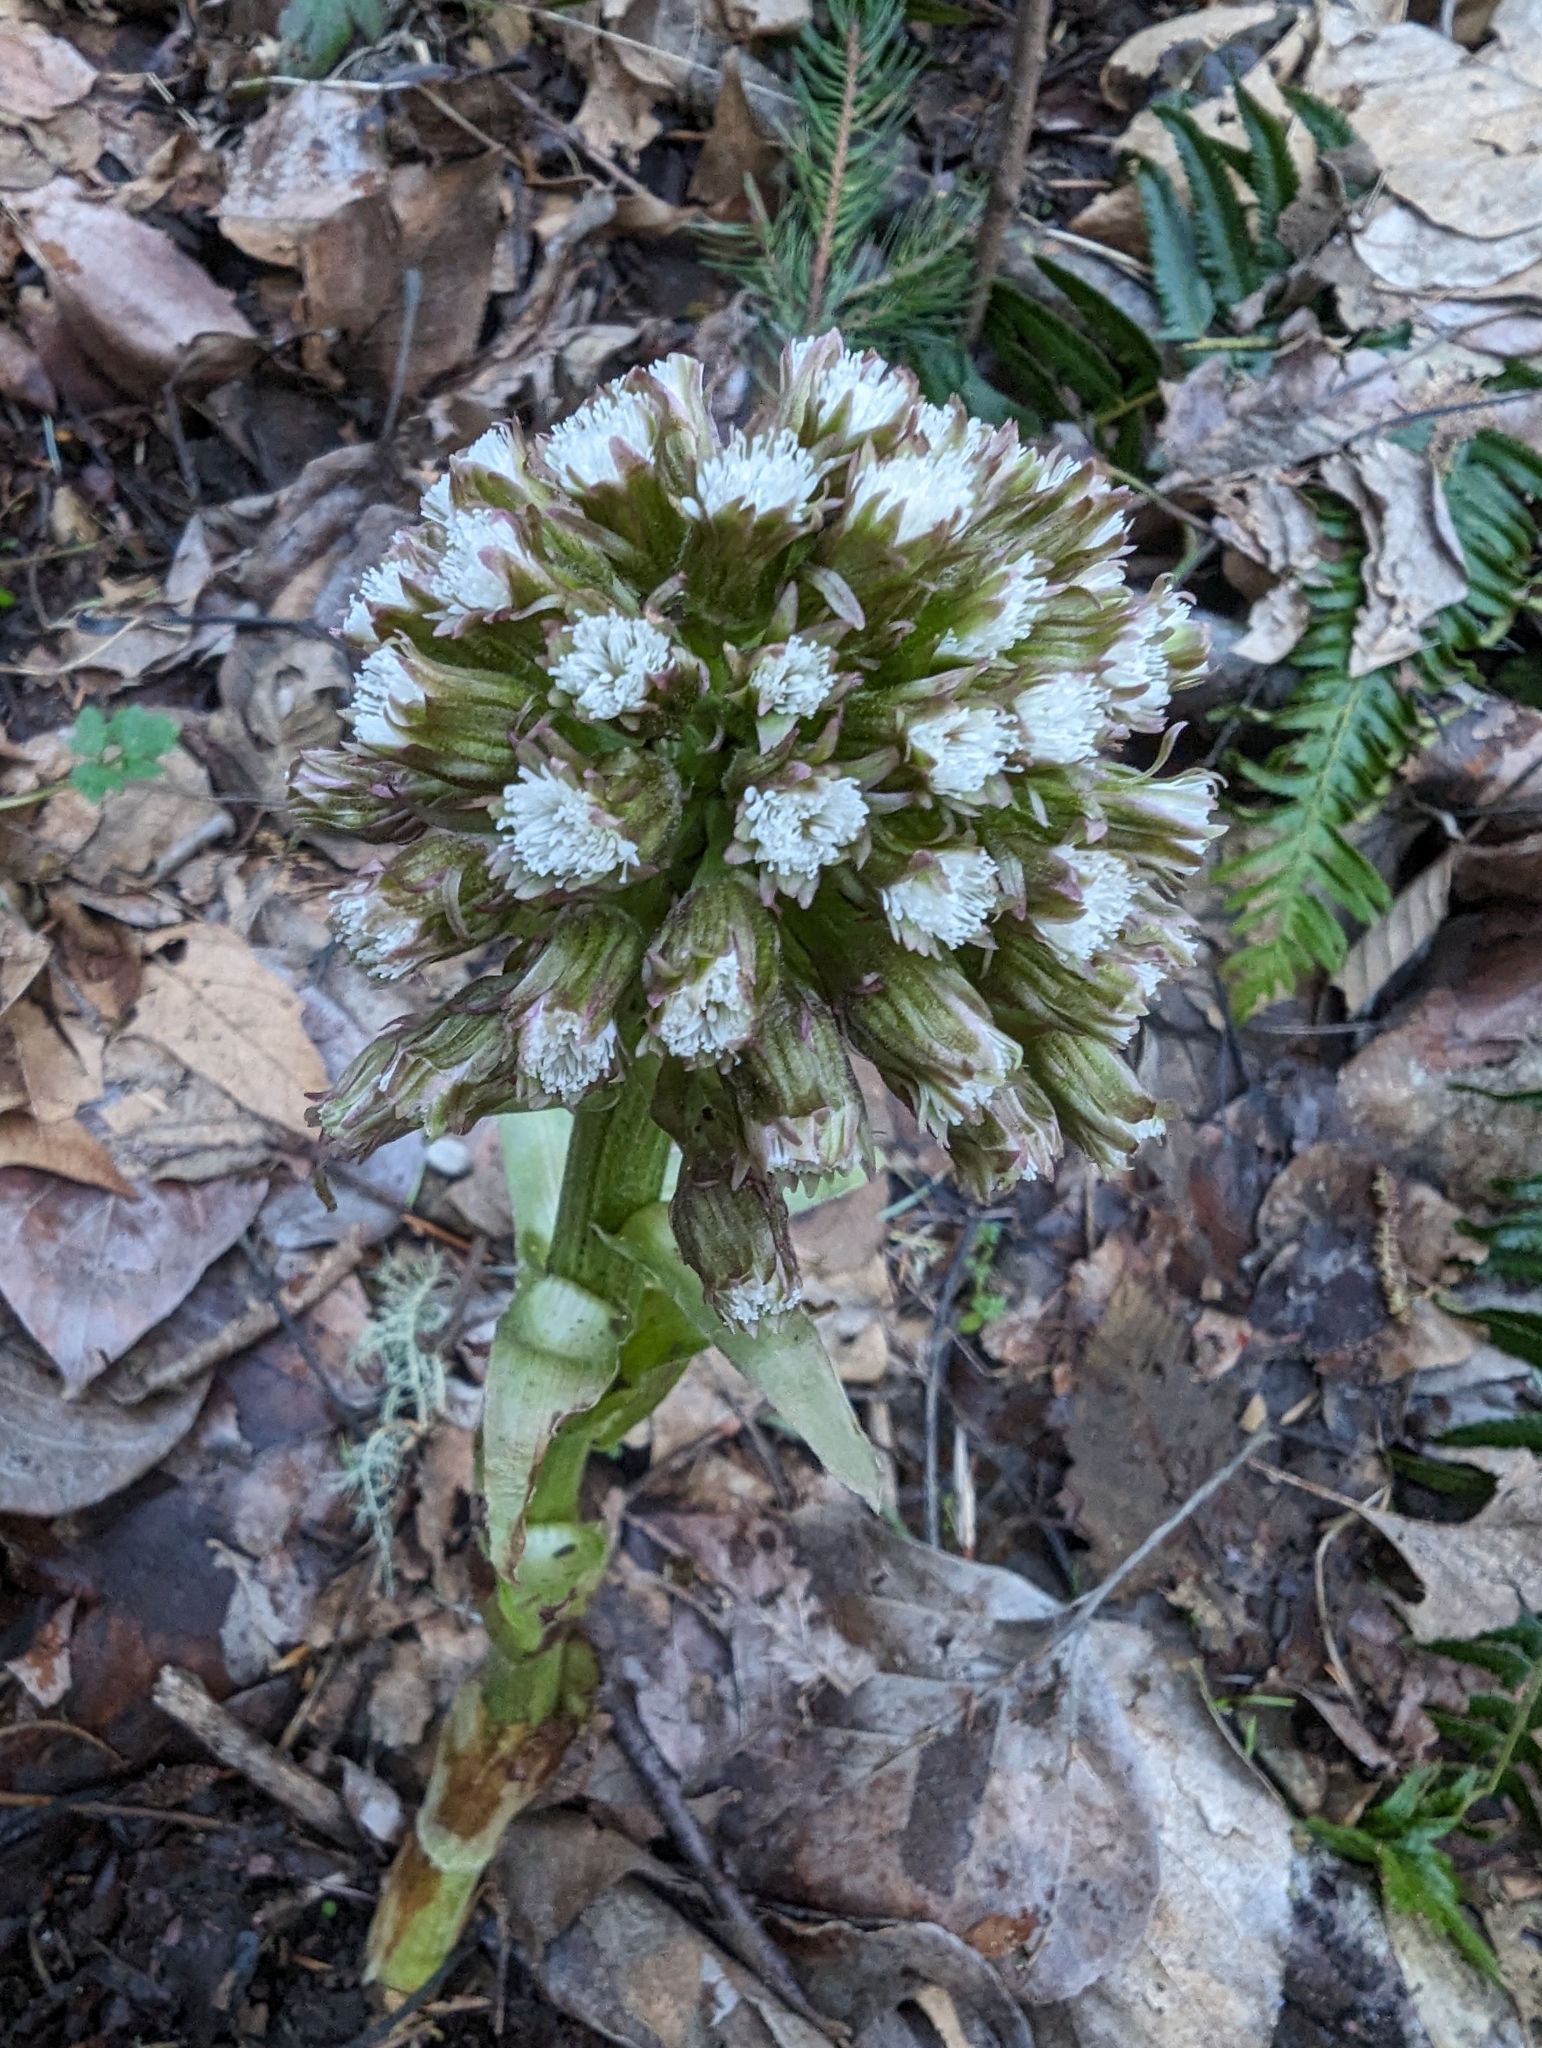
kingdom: Plantae
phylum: Tracheophyta
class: Magnoliopsida
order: Asterales
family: Asteraceae
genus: Petasites
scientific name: Petasites frigidus
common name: Arctic butterbur
